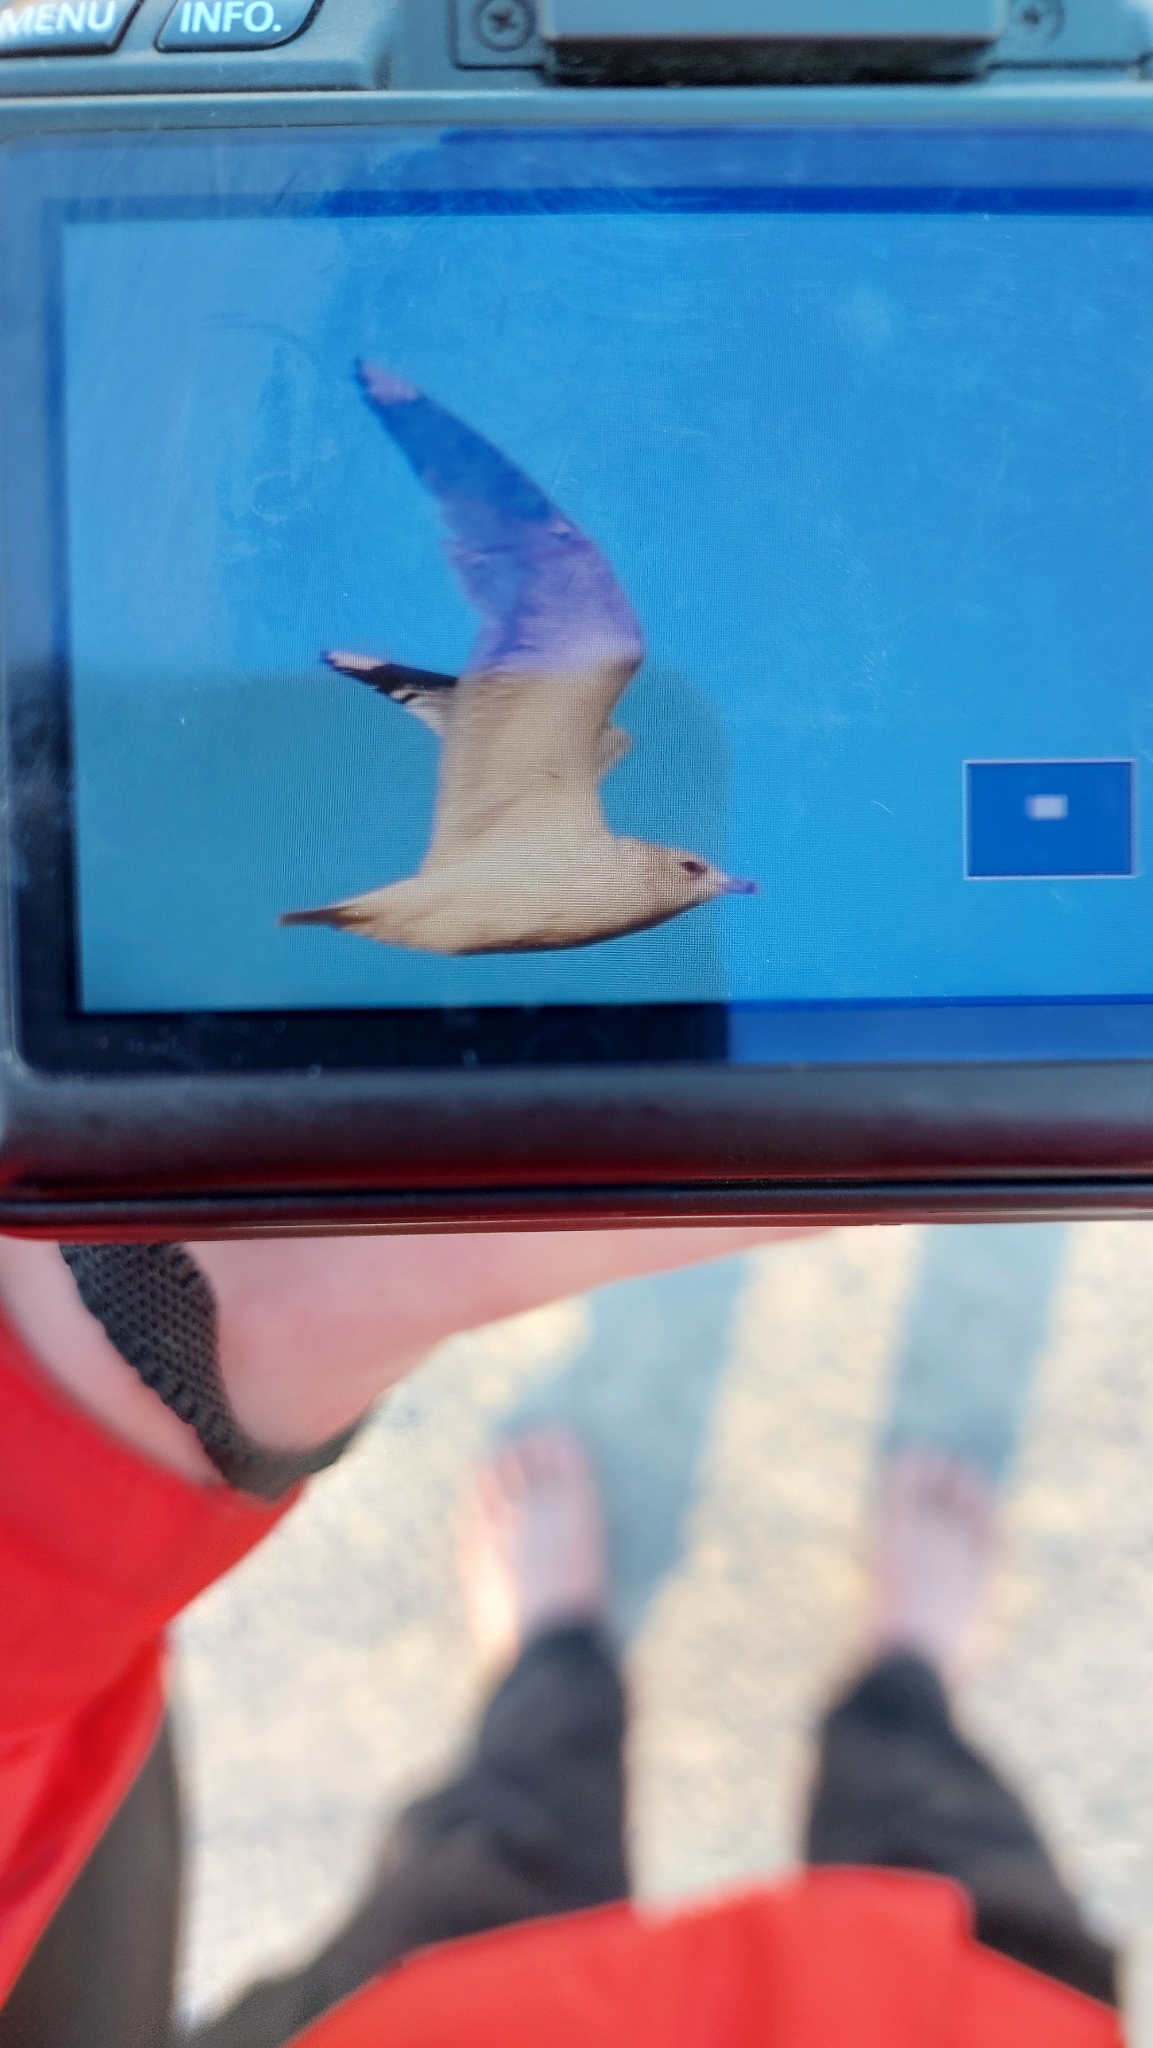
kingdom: Animalia
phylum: Chordata
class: Aves
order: Charadriiformes
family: Laridae
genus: Larus
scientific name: Larus canus
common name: Mew gull
